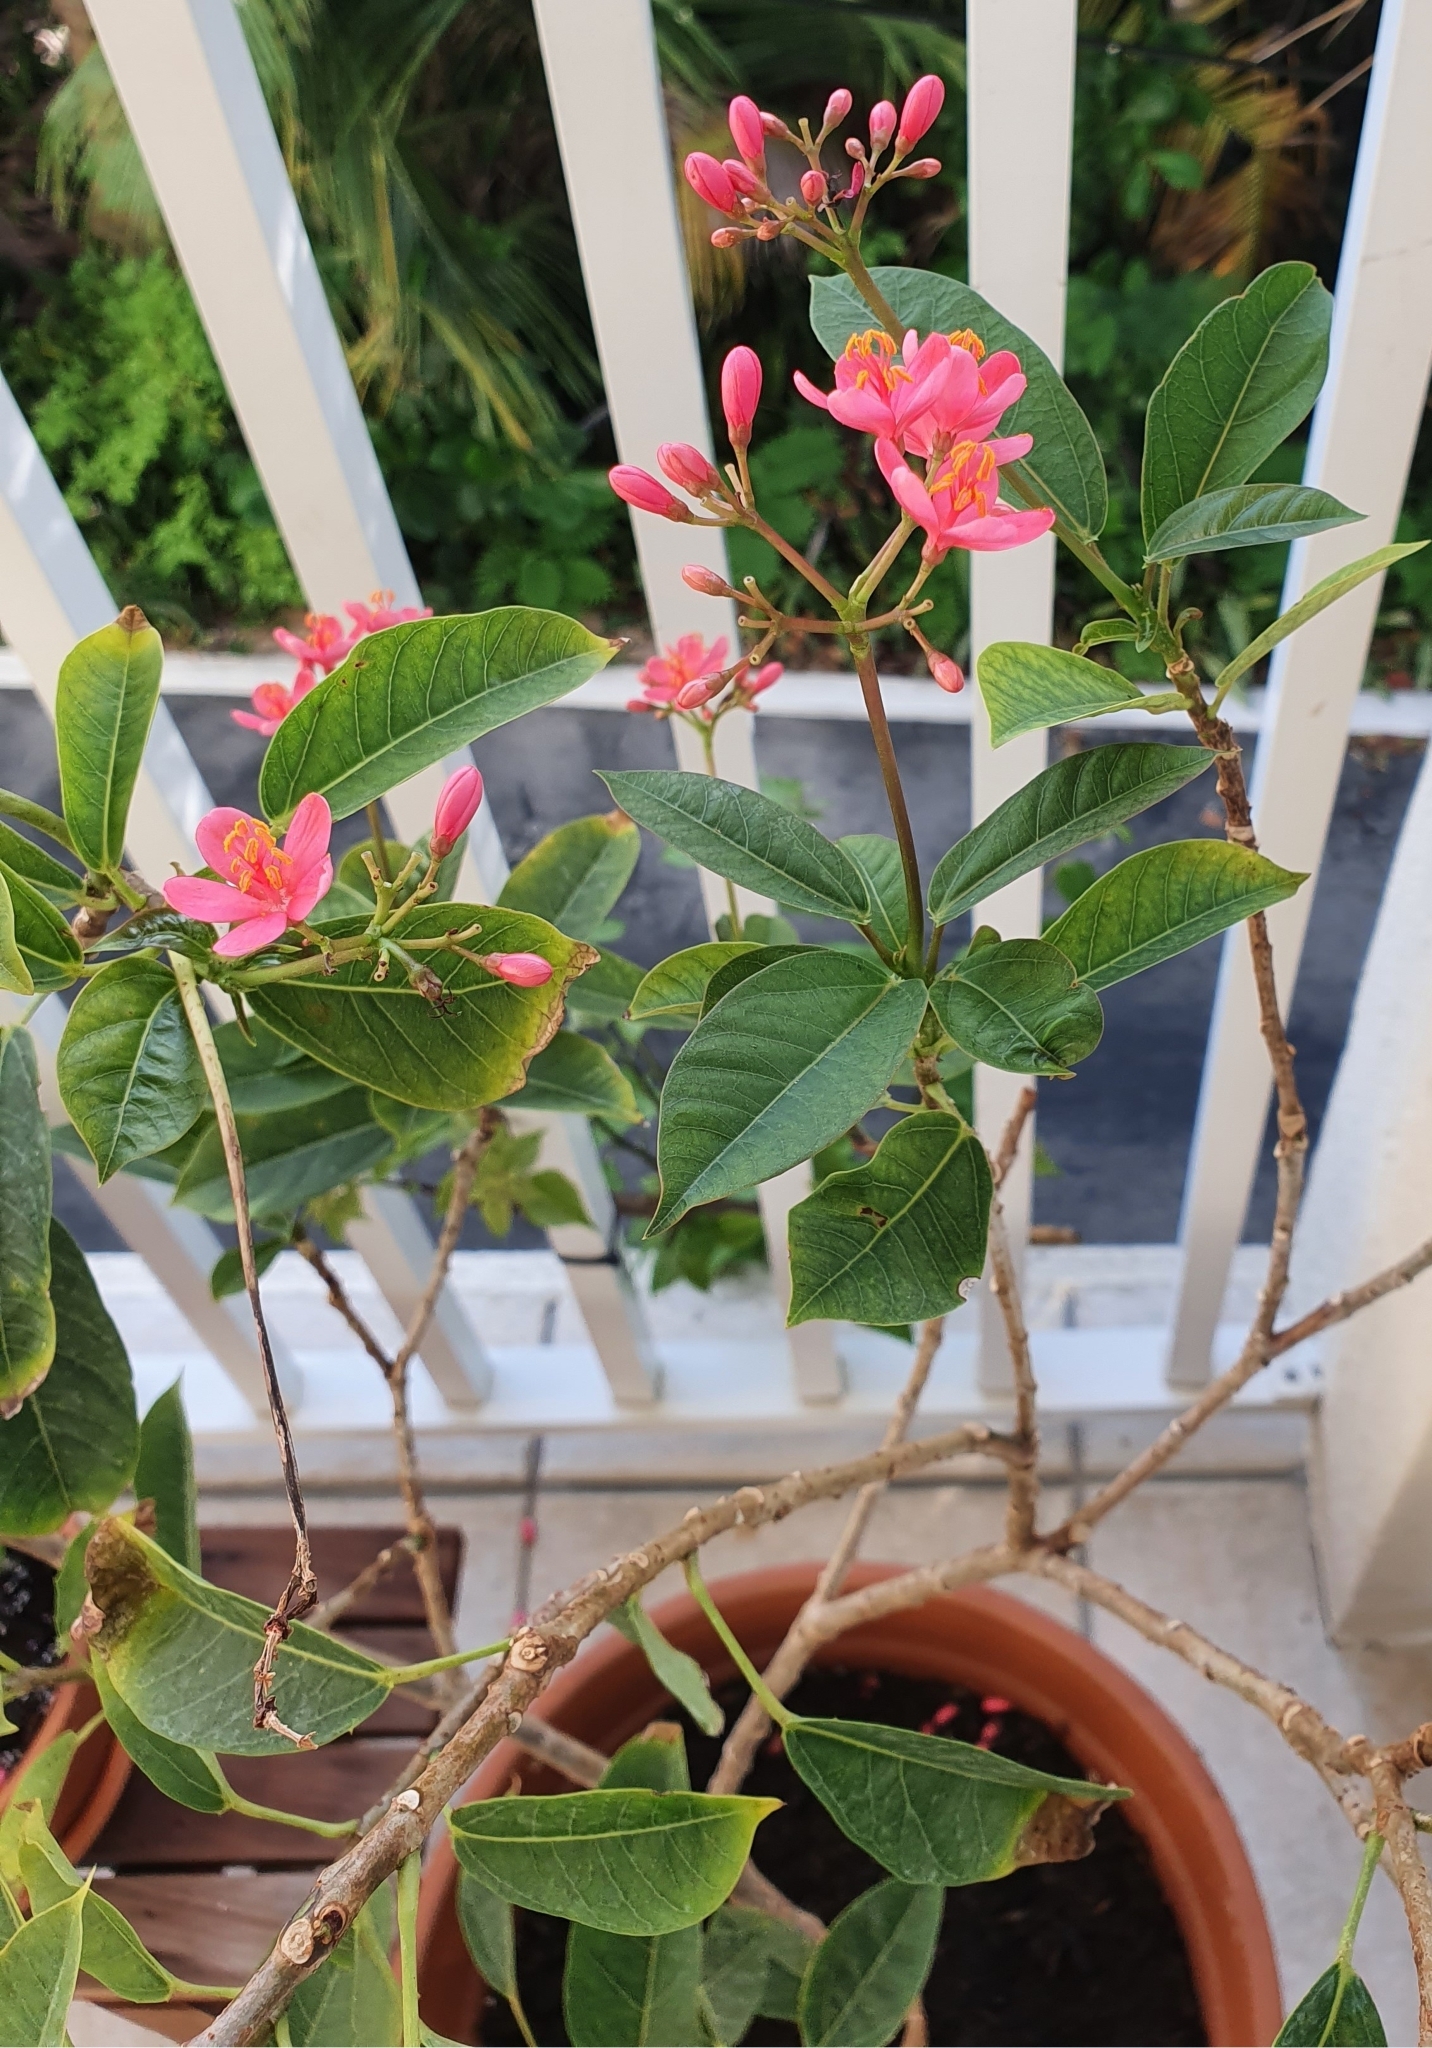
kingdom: Plantae
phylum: Tracheophyta
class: Magnoliopsida
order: Malpighiales
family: Euphorbiaceae
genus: Jatropha
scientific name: Jatropha integerrima
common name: Peregrina
